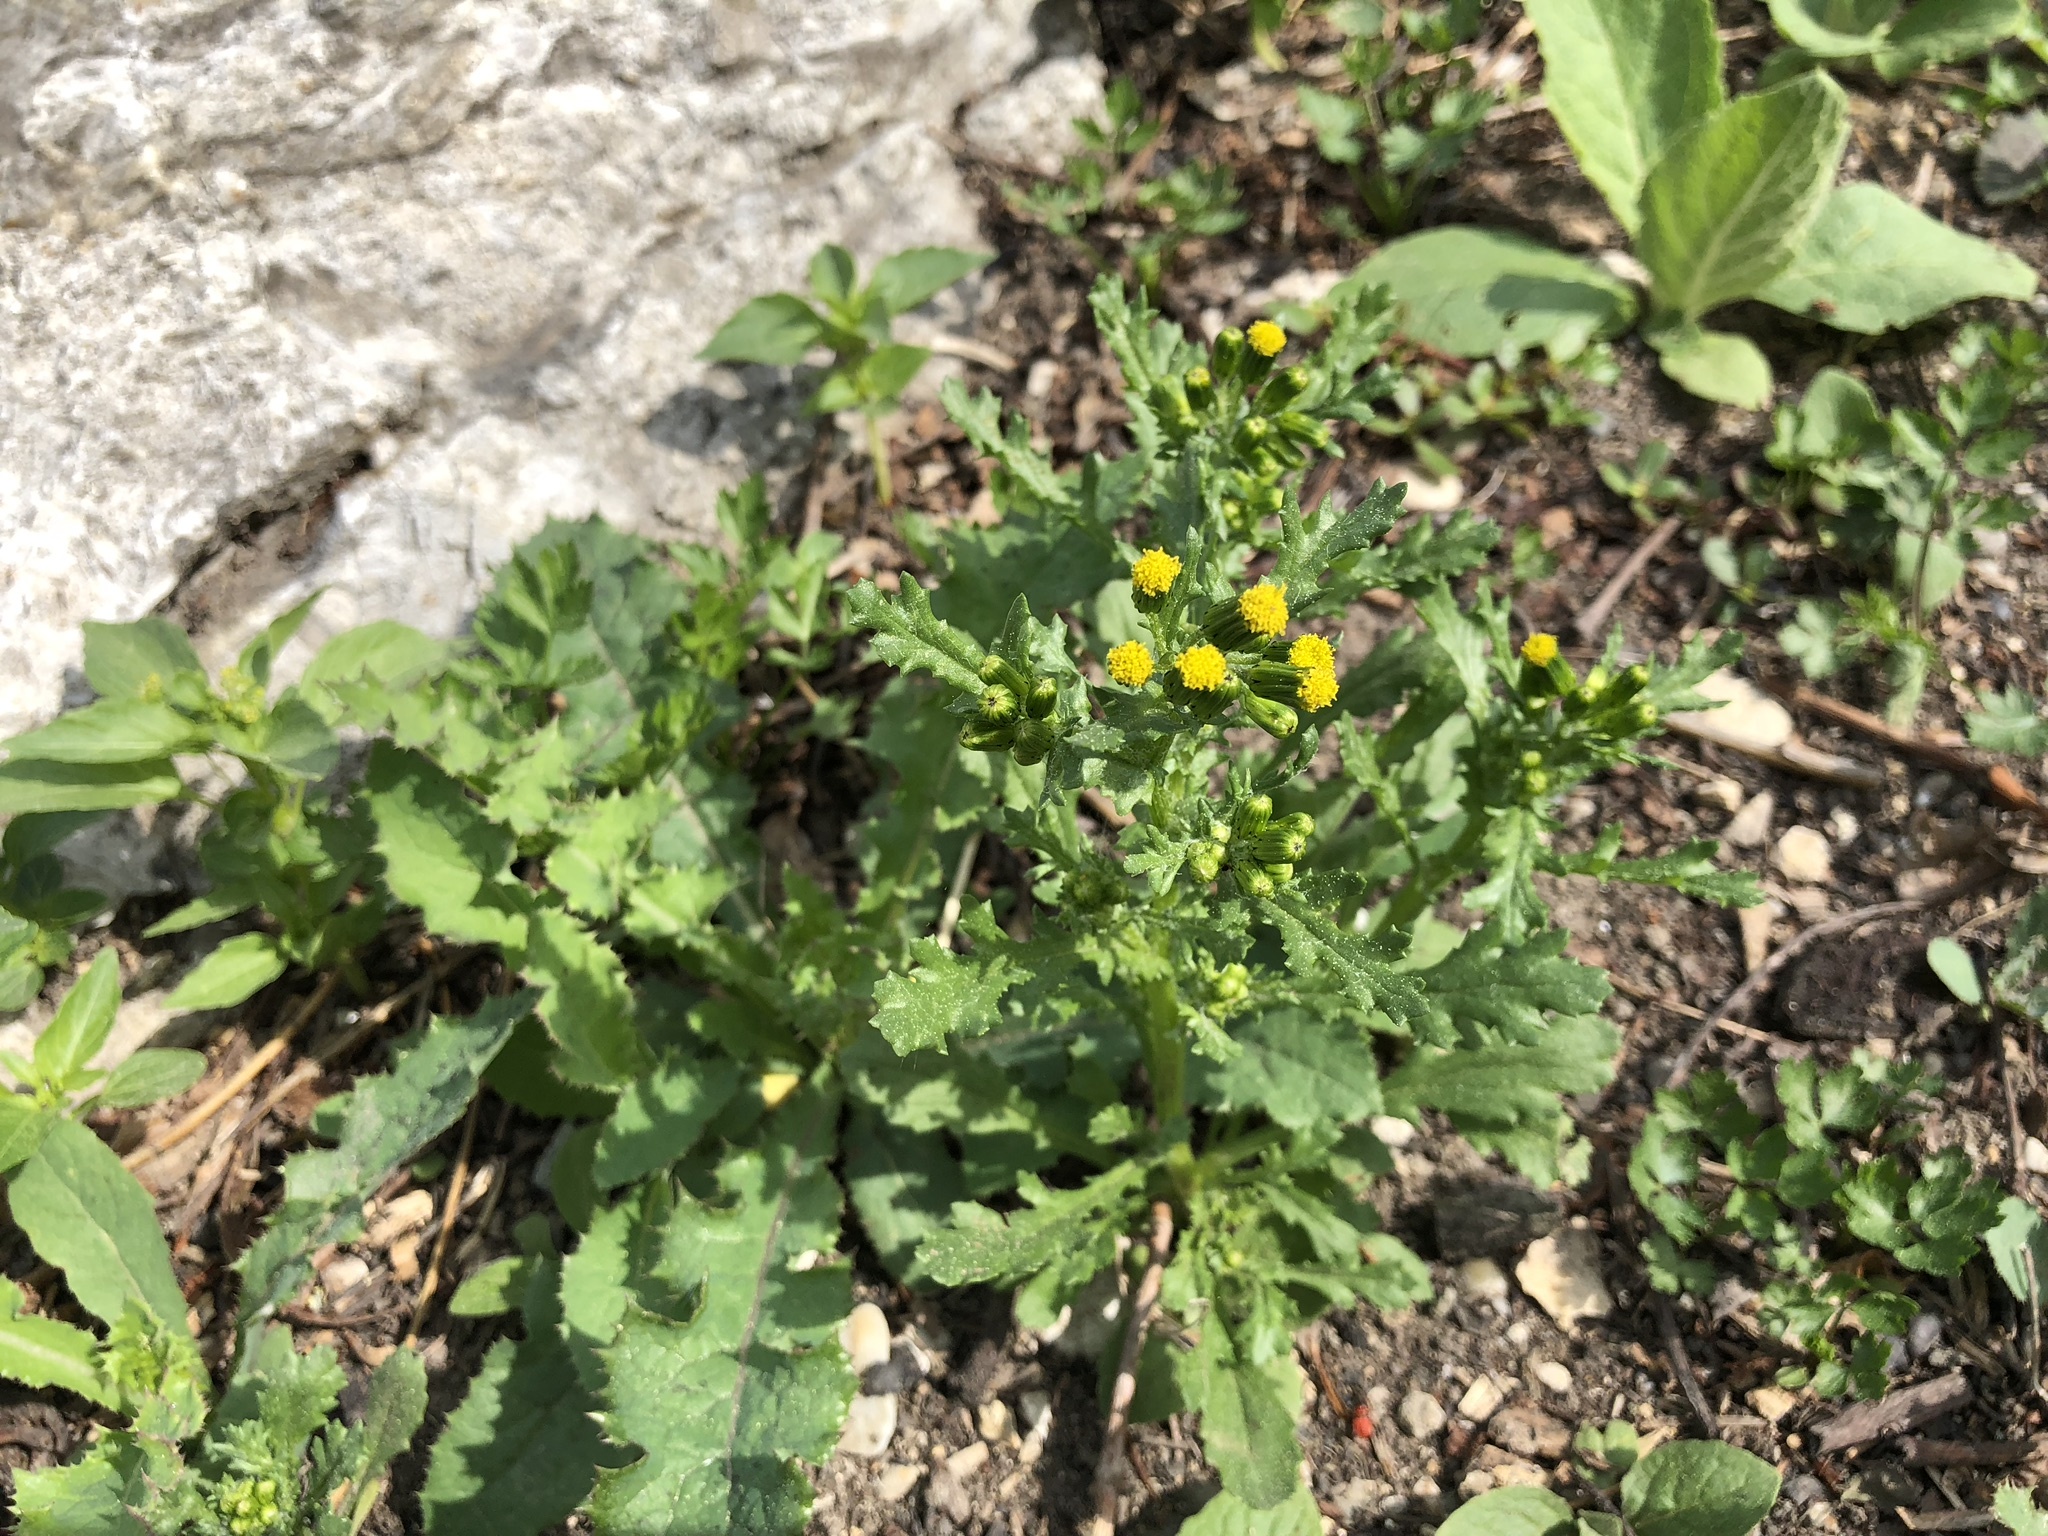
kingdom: Plantae
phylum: Tracheophyta
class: Magnoliopsida
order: Asterales
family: Asteraceae
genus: Senecio
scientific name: Senecio vulgaris
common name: Old-man-in-the-spring
